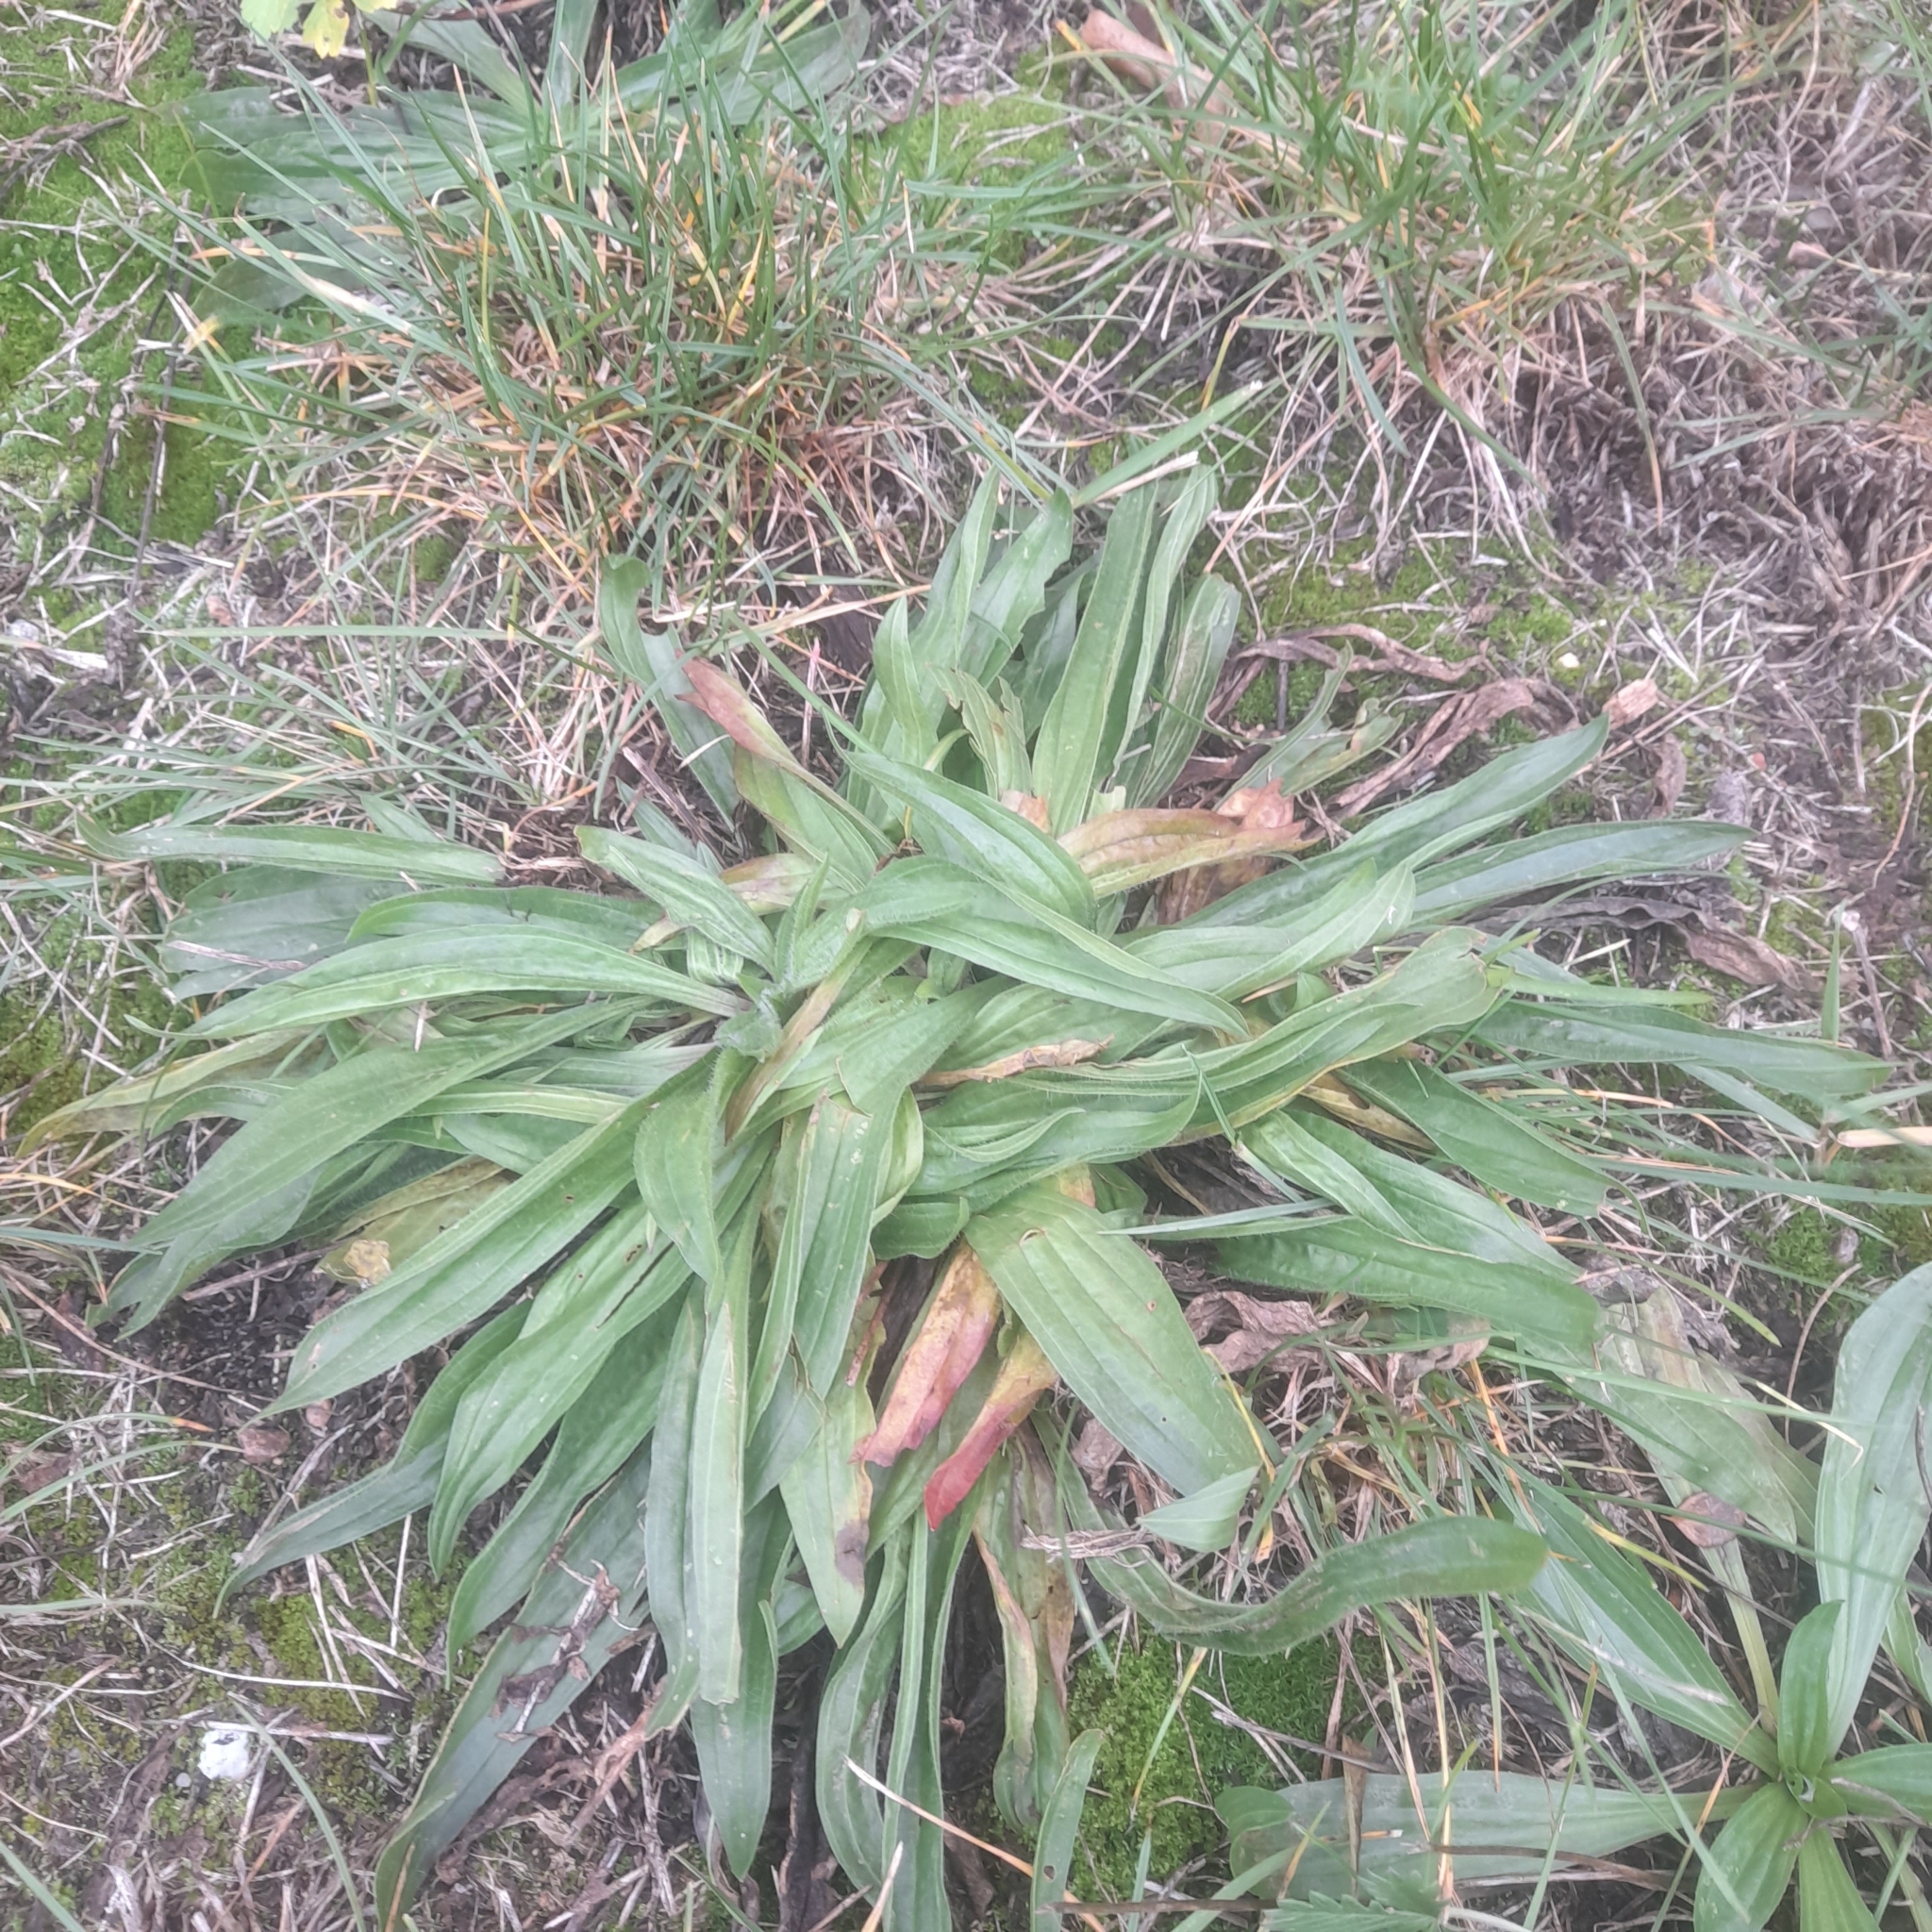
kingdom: Plantae
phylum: Tracheophyta
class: Magnoliopsida
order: Lamiales
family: Plantaginaceae
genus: Plantago
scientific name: Plantago lanceolata
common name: Ribwort plantain
